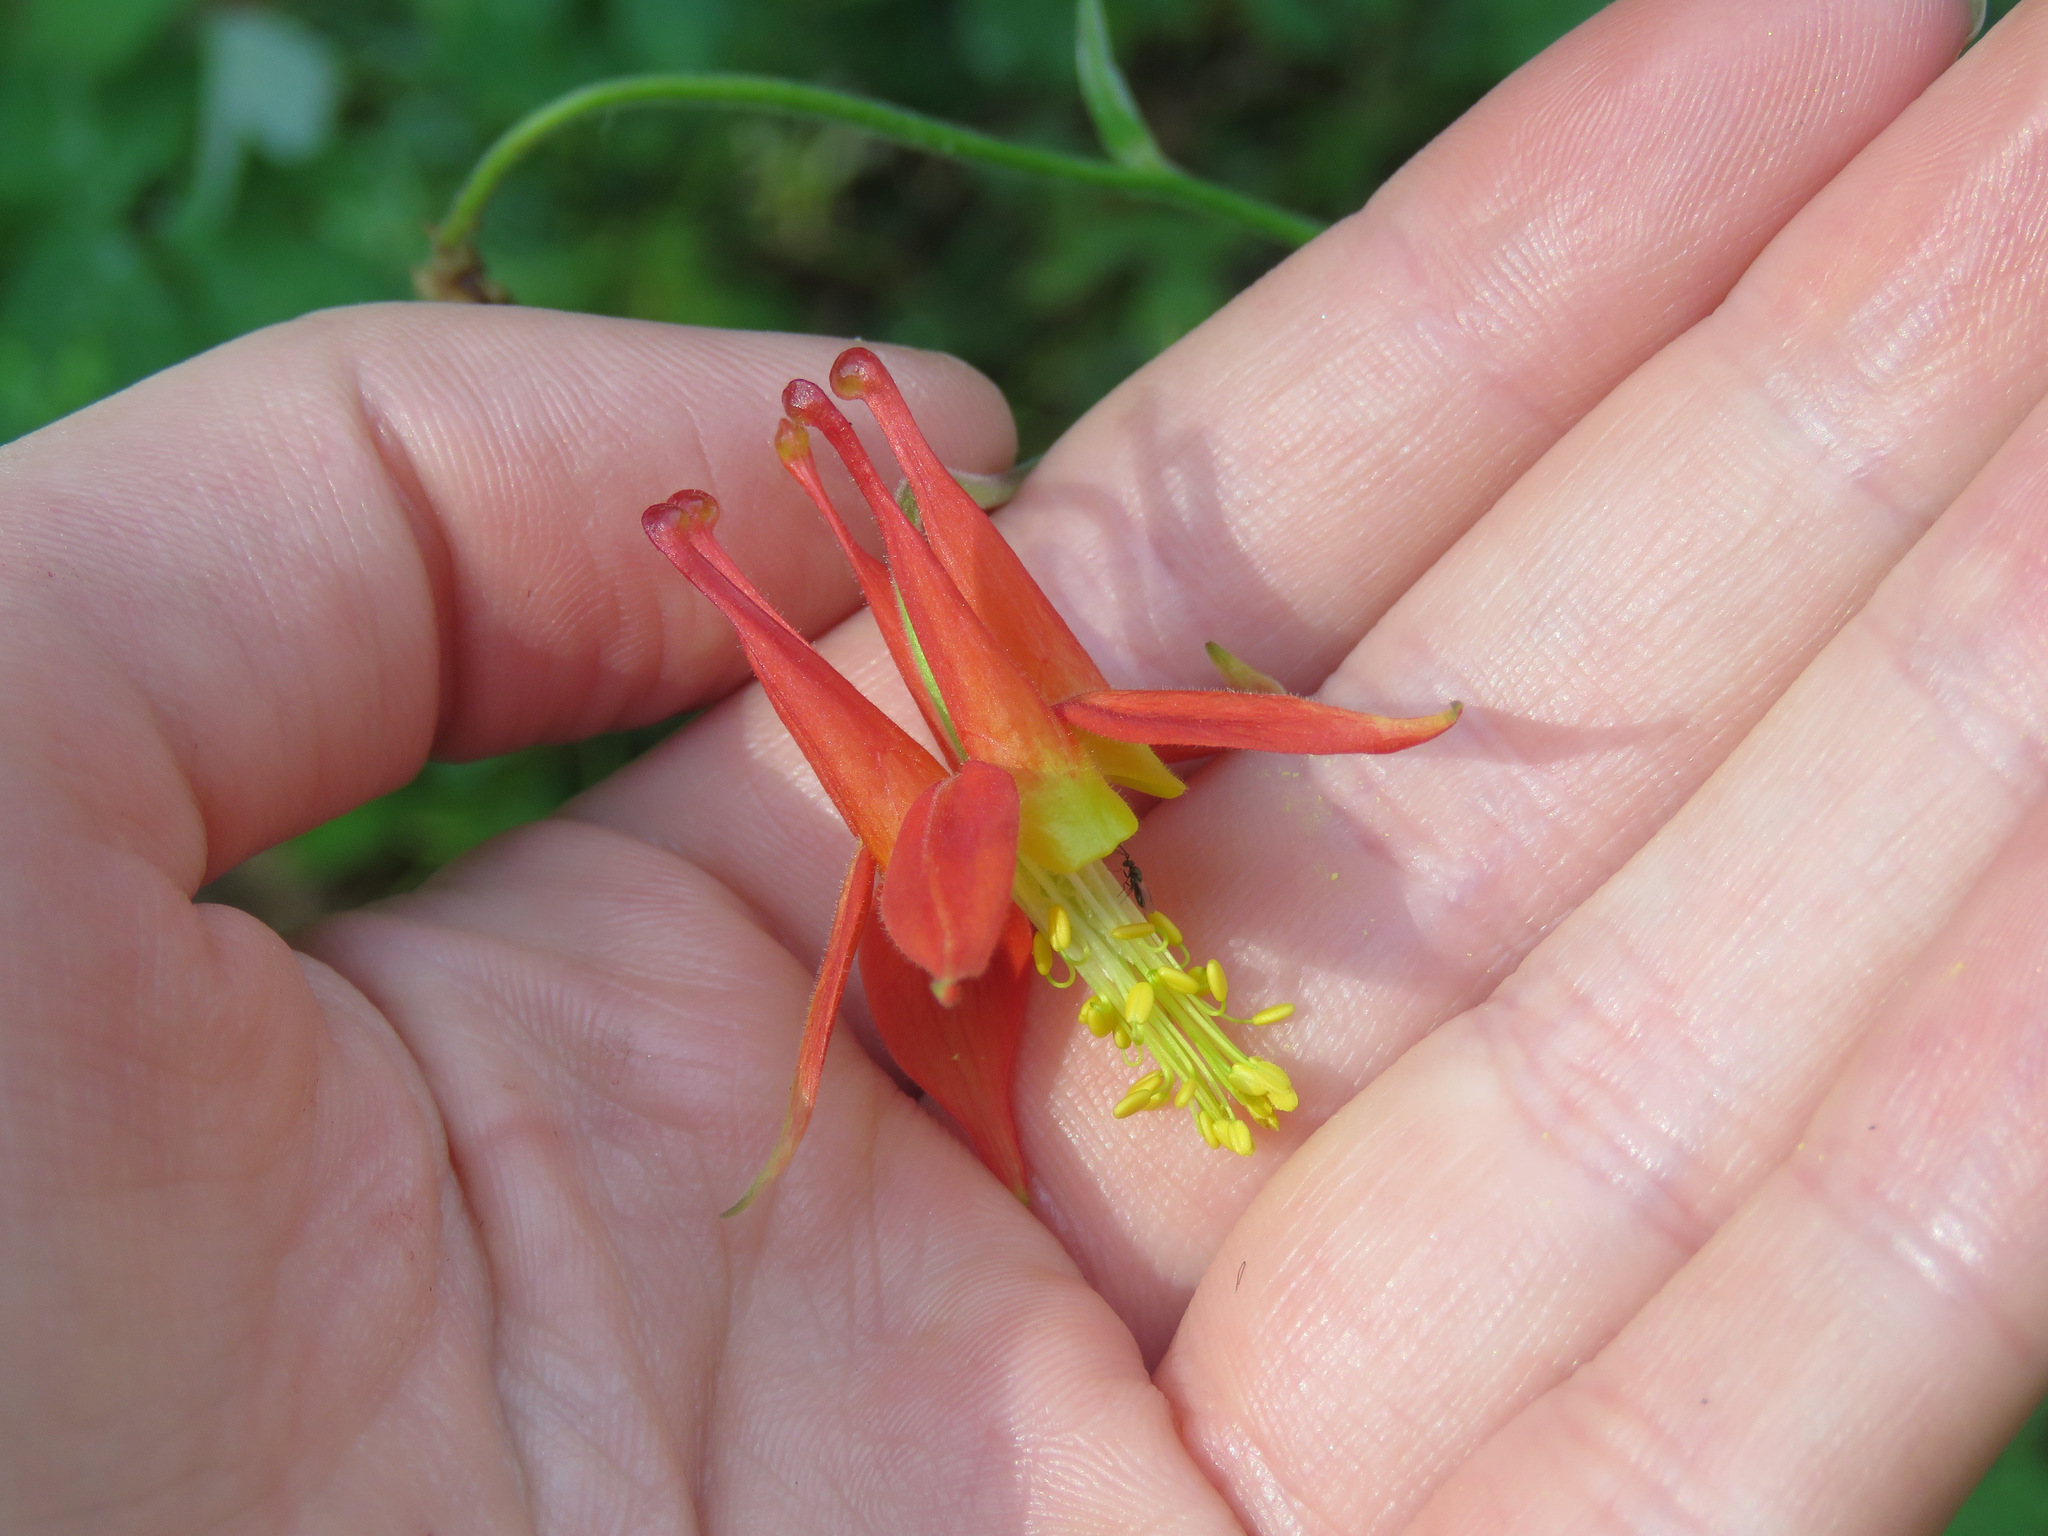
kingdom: Plantae
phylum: Tracheophyta
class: Magnoliopsida
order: Ranunculales
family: Ranunculaceae
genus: Aquilegia
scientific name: Aquilegia formosa
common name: Sitka columbine
